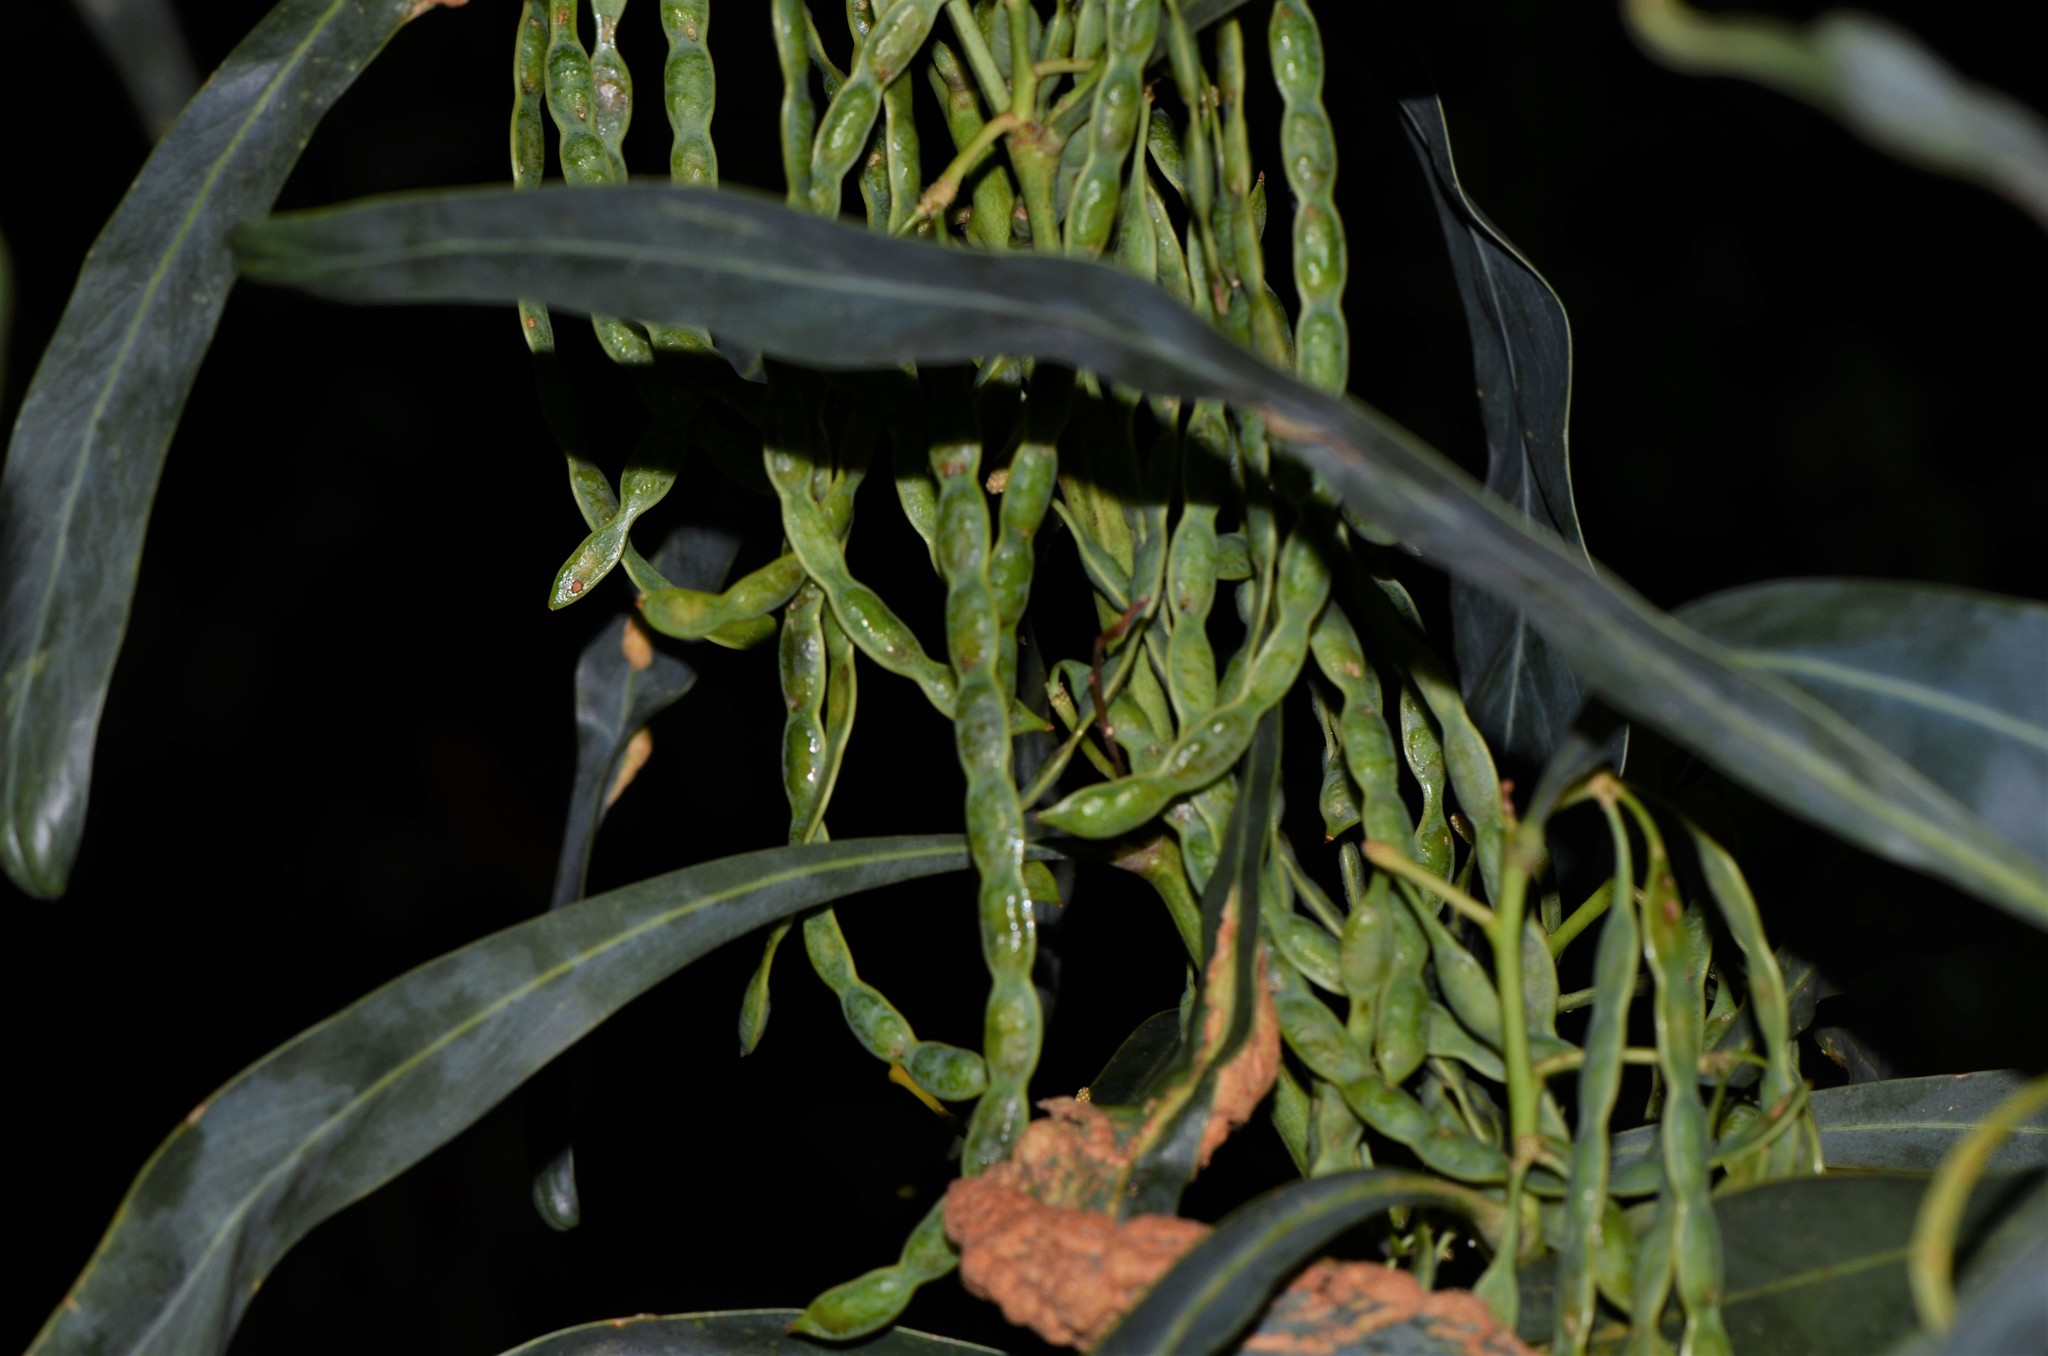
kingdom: Plantae
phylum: Tracheophyta
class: Magnoliopsida
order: Fabales
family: Fabaceae
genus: Acacia
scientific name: Acacia saligna
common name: Orange wattle
